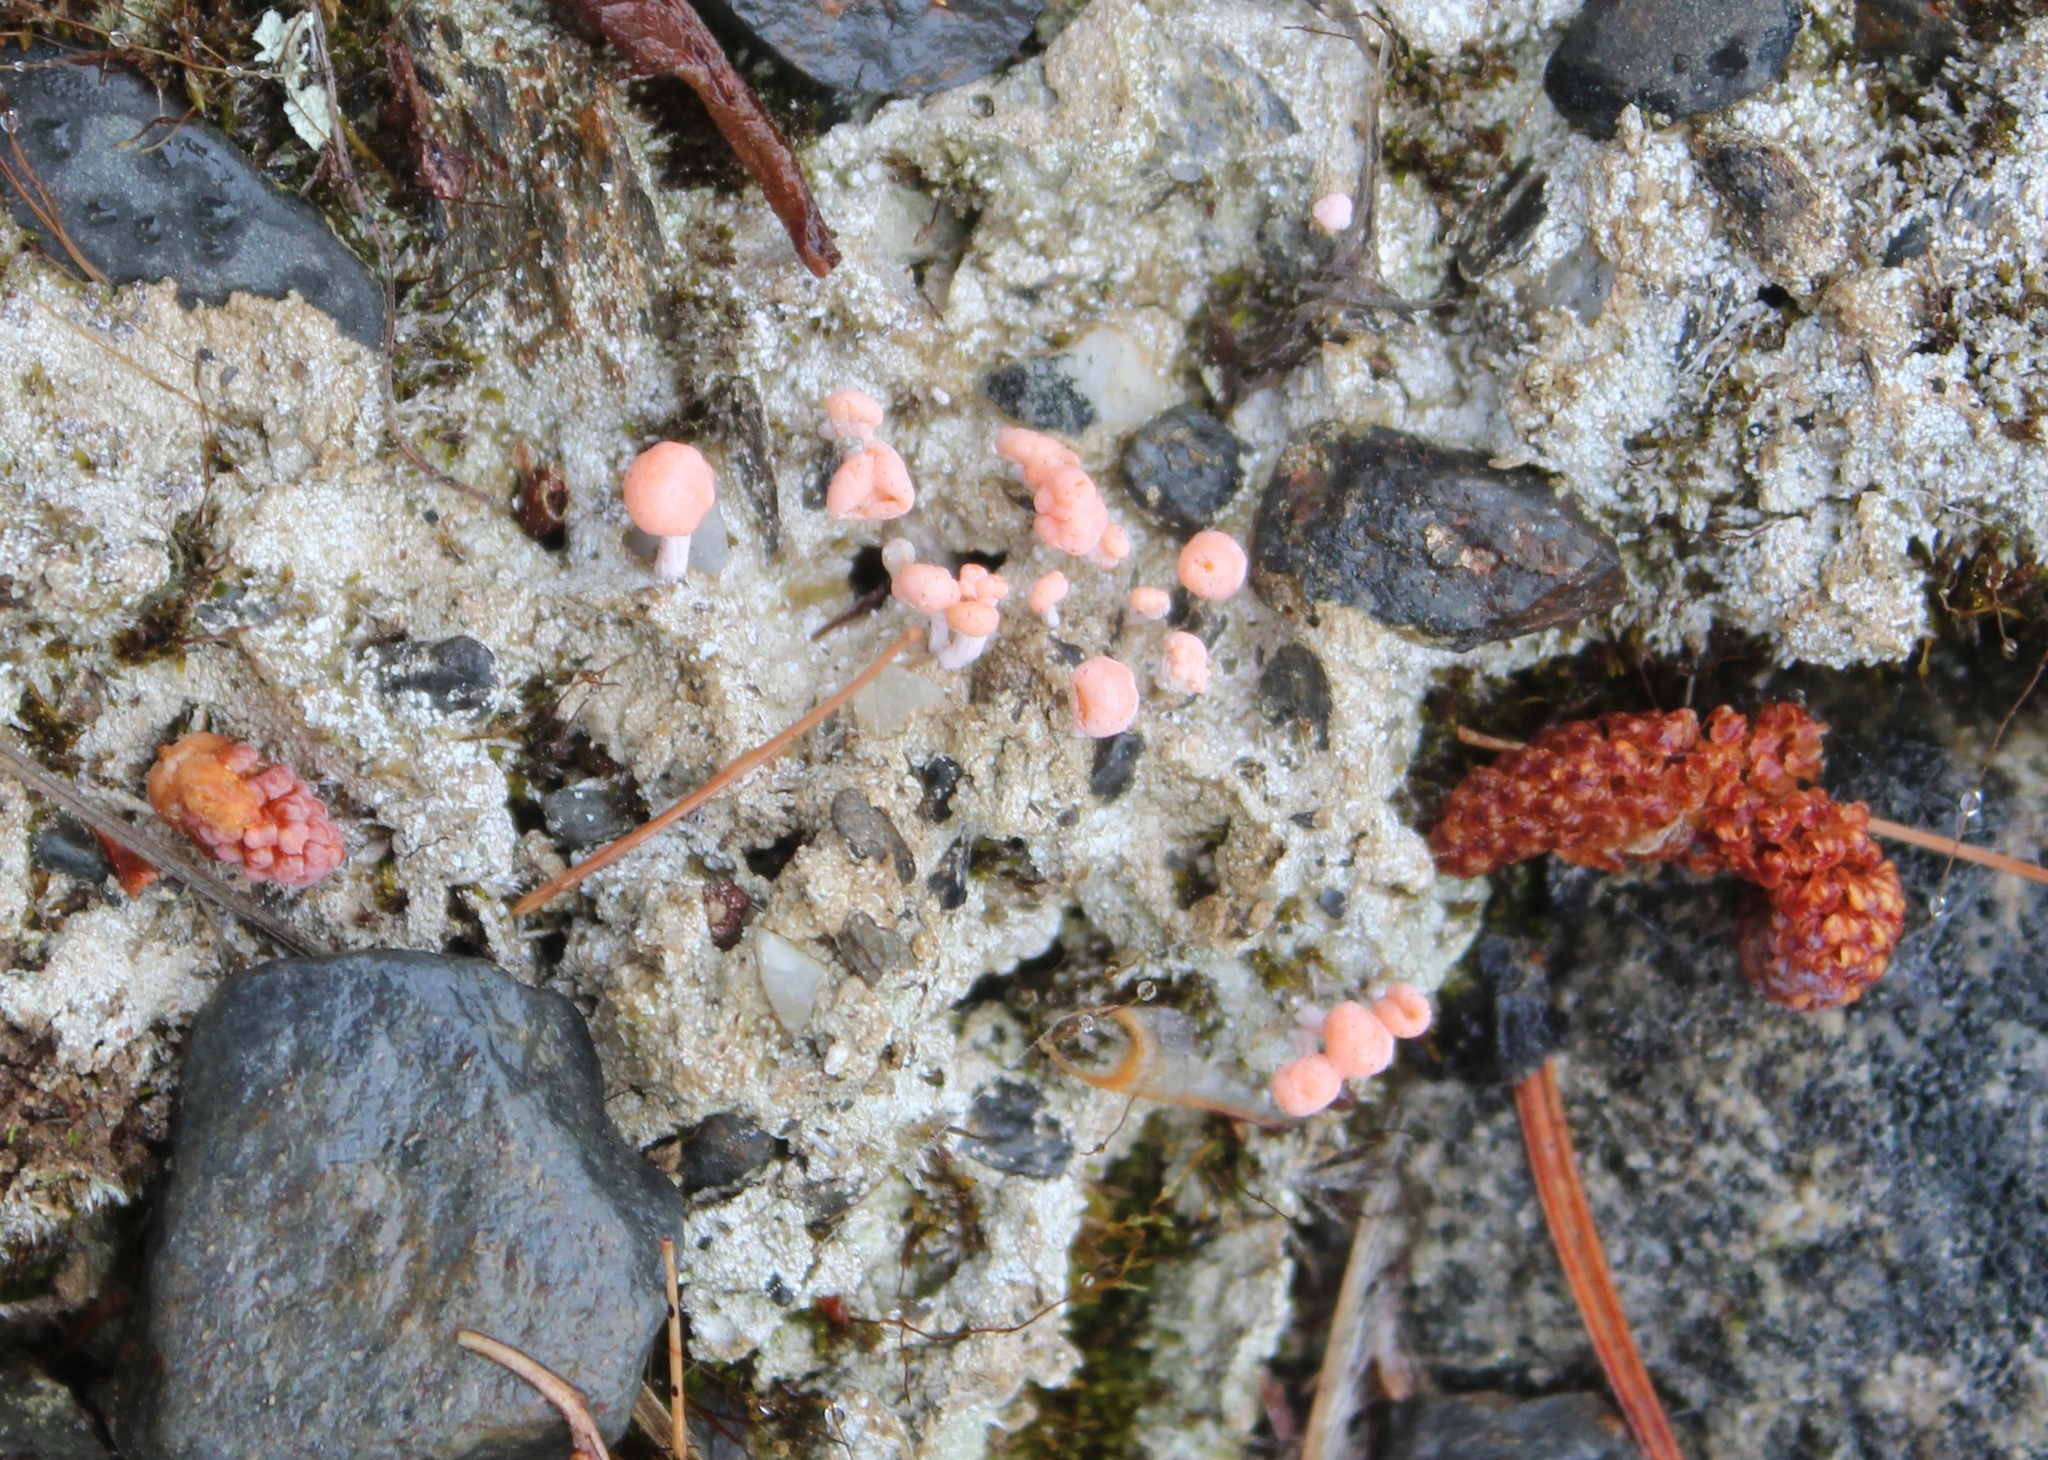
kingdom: Fungi
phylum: Ascomycota
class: Lecanoromycetes
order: Pertusariales
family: Icmadophilaceae
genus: Dibaeis
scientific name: Dibaeis baeomyces
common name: Pink earth lichen
